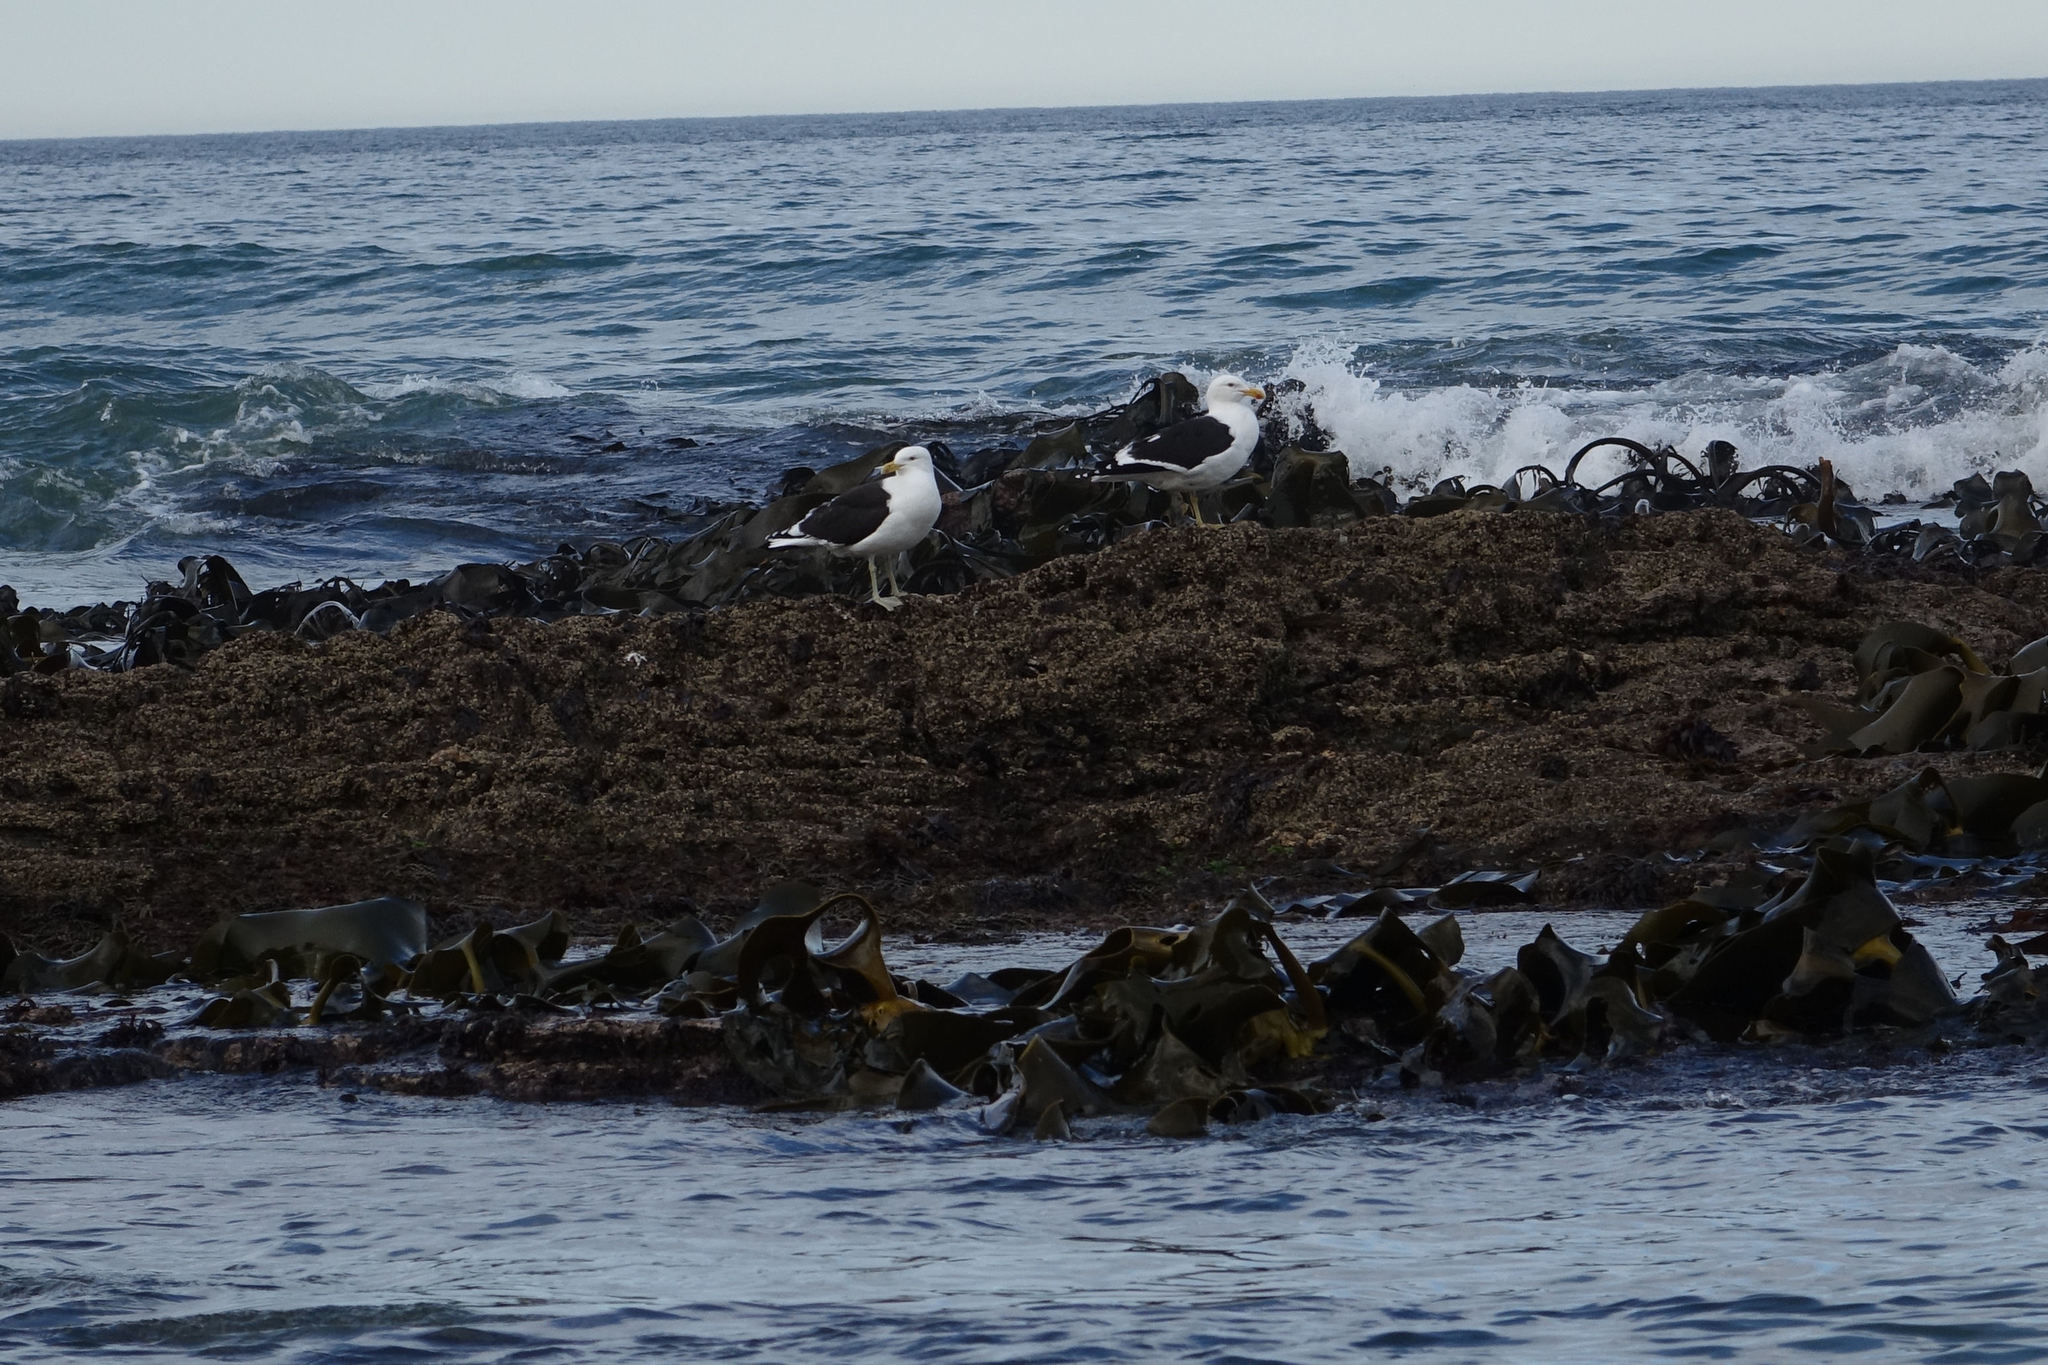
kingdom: Animalia
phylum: Chordata
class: Aves
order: Charadriiformes
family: Laridae
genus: Larus
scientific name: Larus dominicanus
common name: Kelp gull
